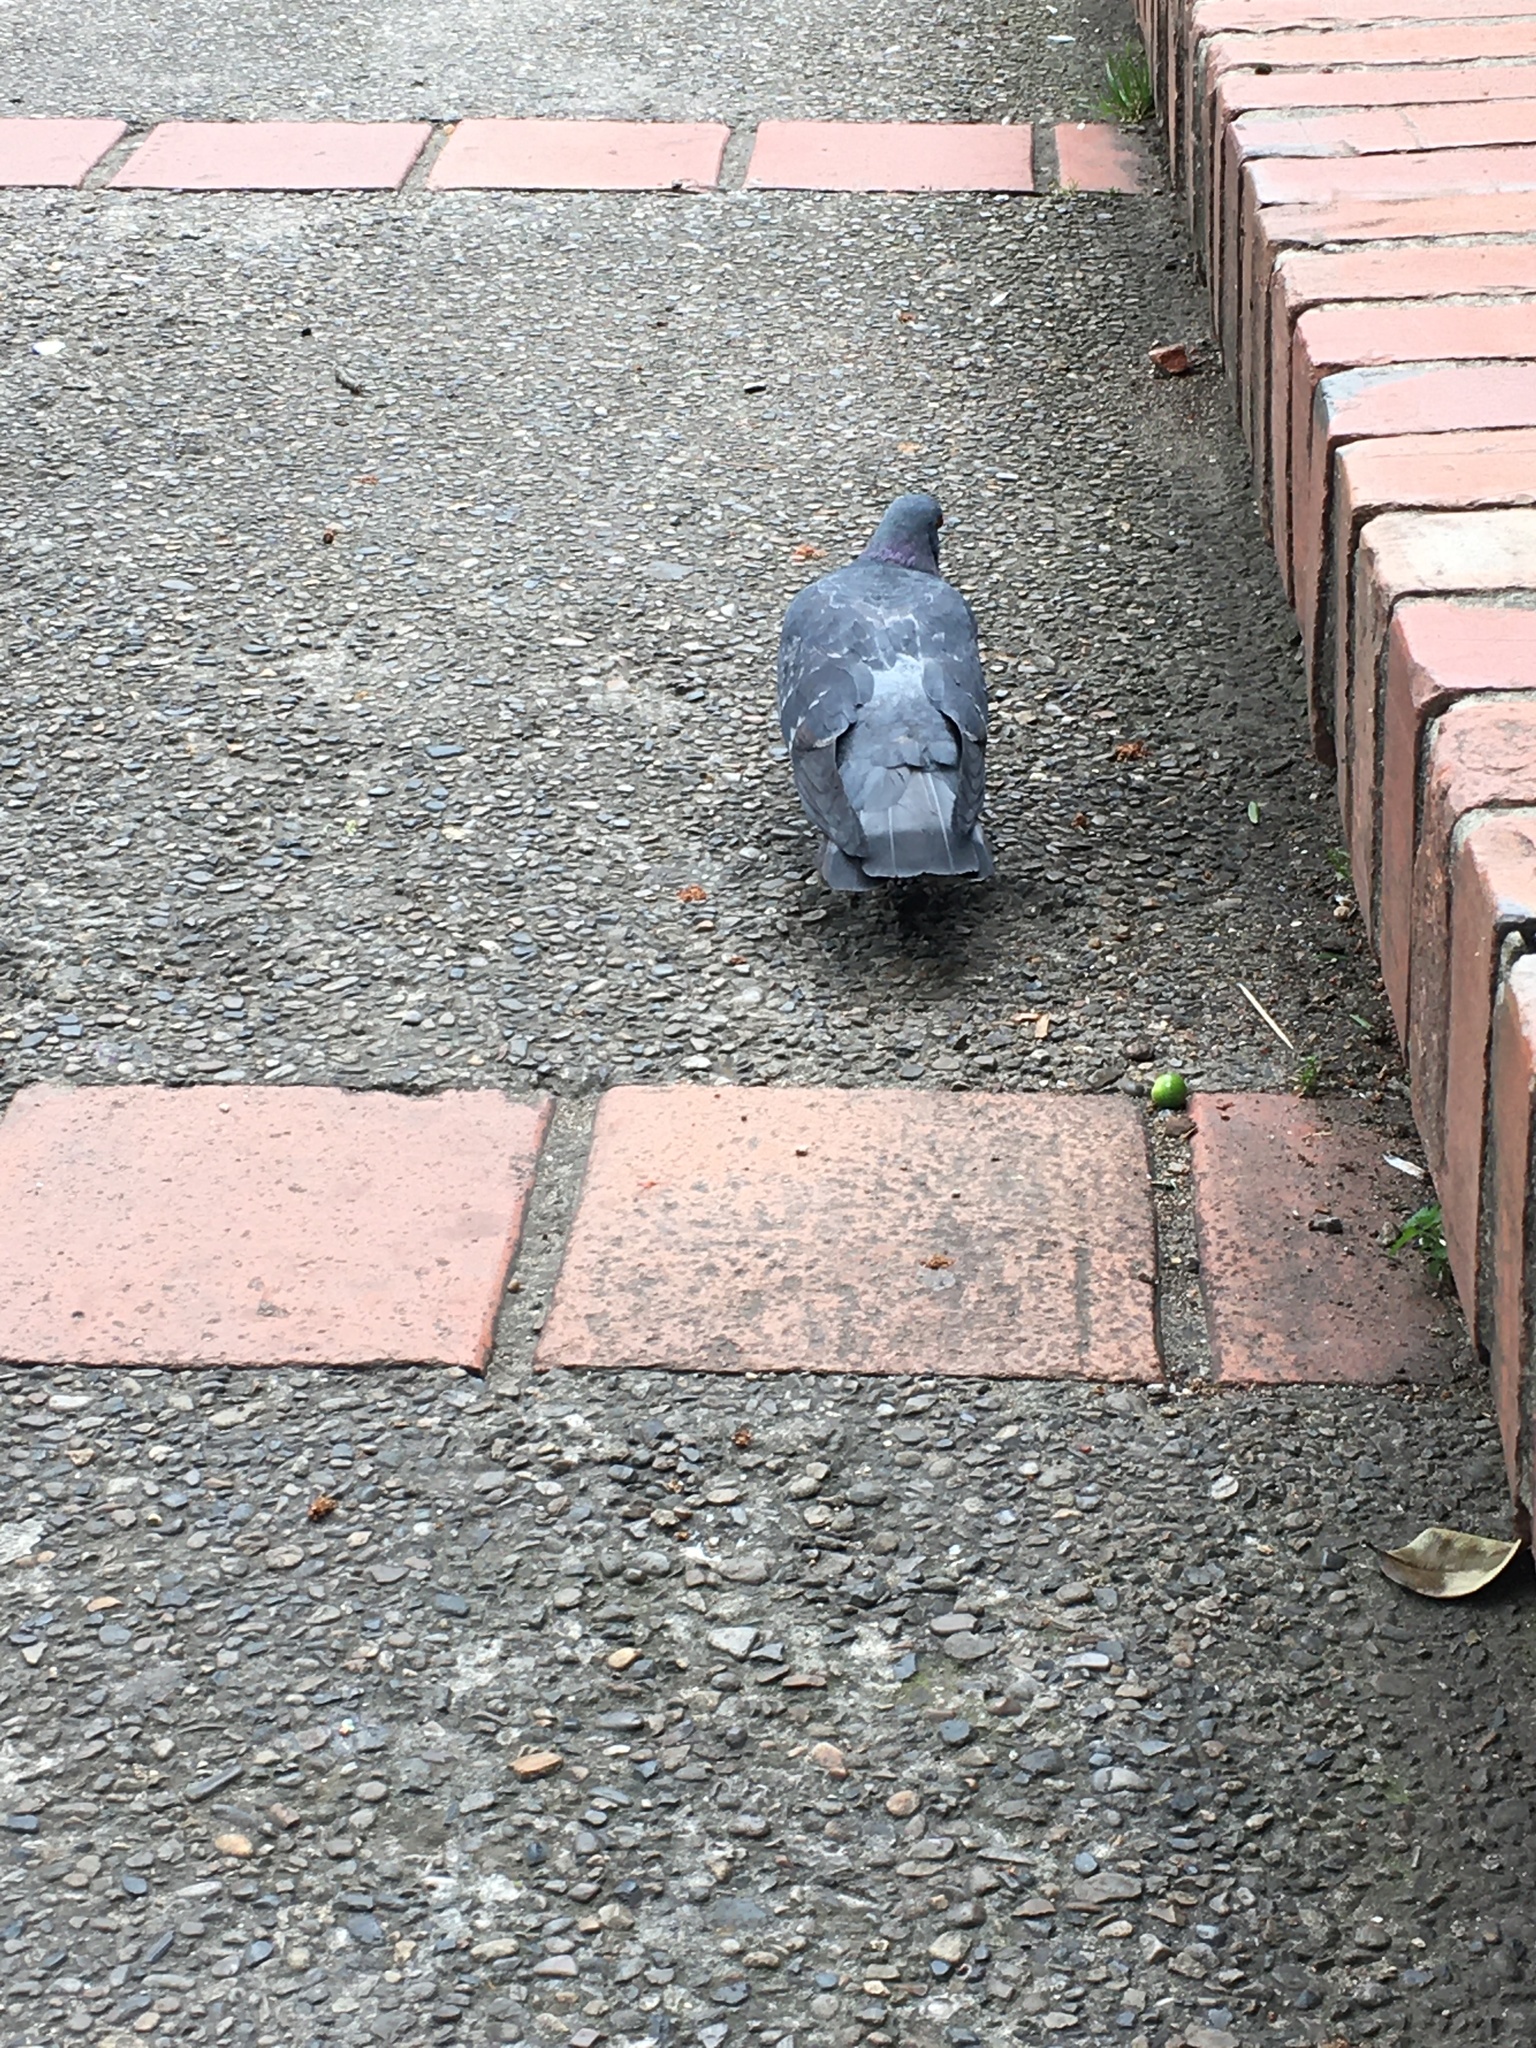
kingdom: Animalia
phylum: Chordata
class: Aves
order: Columbiformes
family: Columbidae
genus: Columba
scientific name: Columba livia
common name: Rock pigeon
